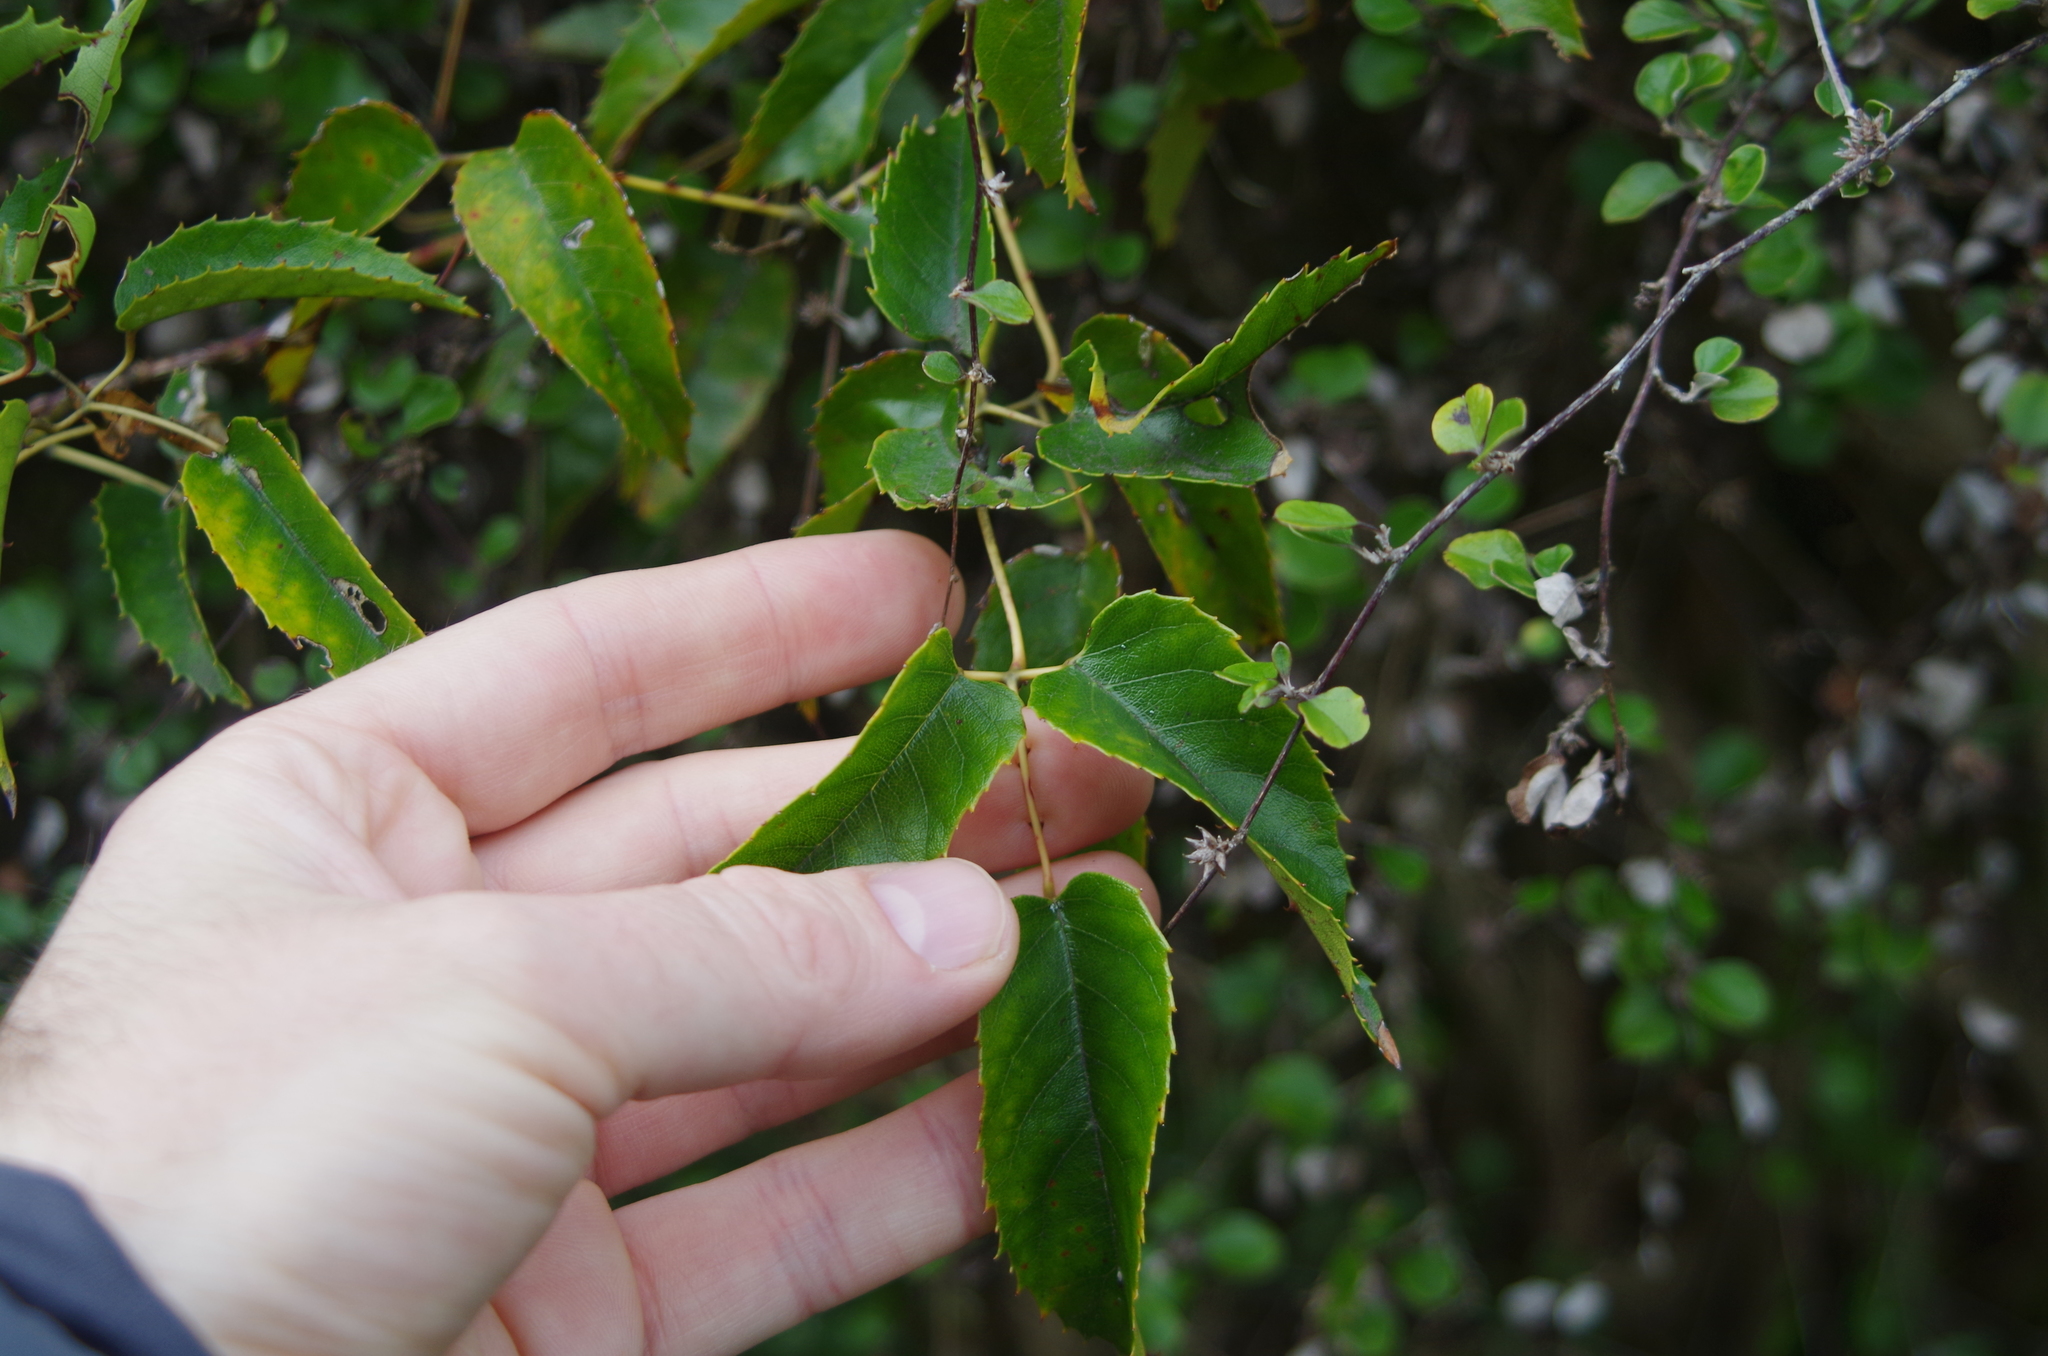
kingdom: Plantae
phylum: Tracheophyta
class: Magnoliopsida
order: Rosales
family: Rosaceae
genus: Rubus
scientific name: Rubus schmidelioides
